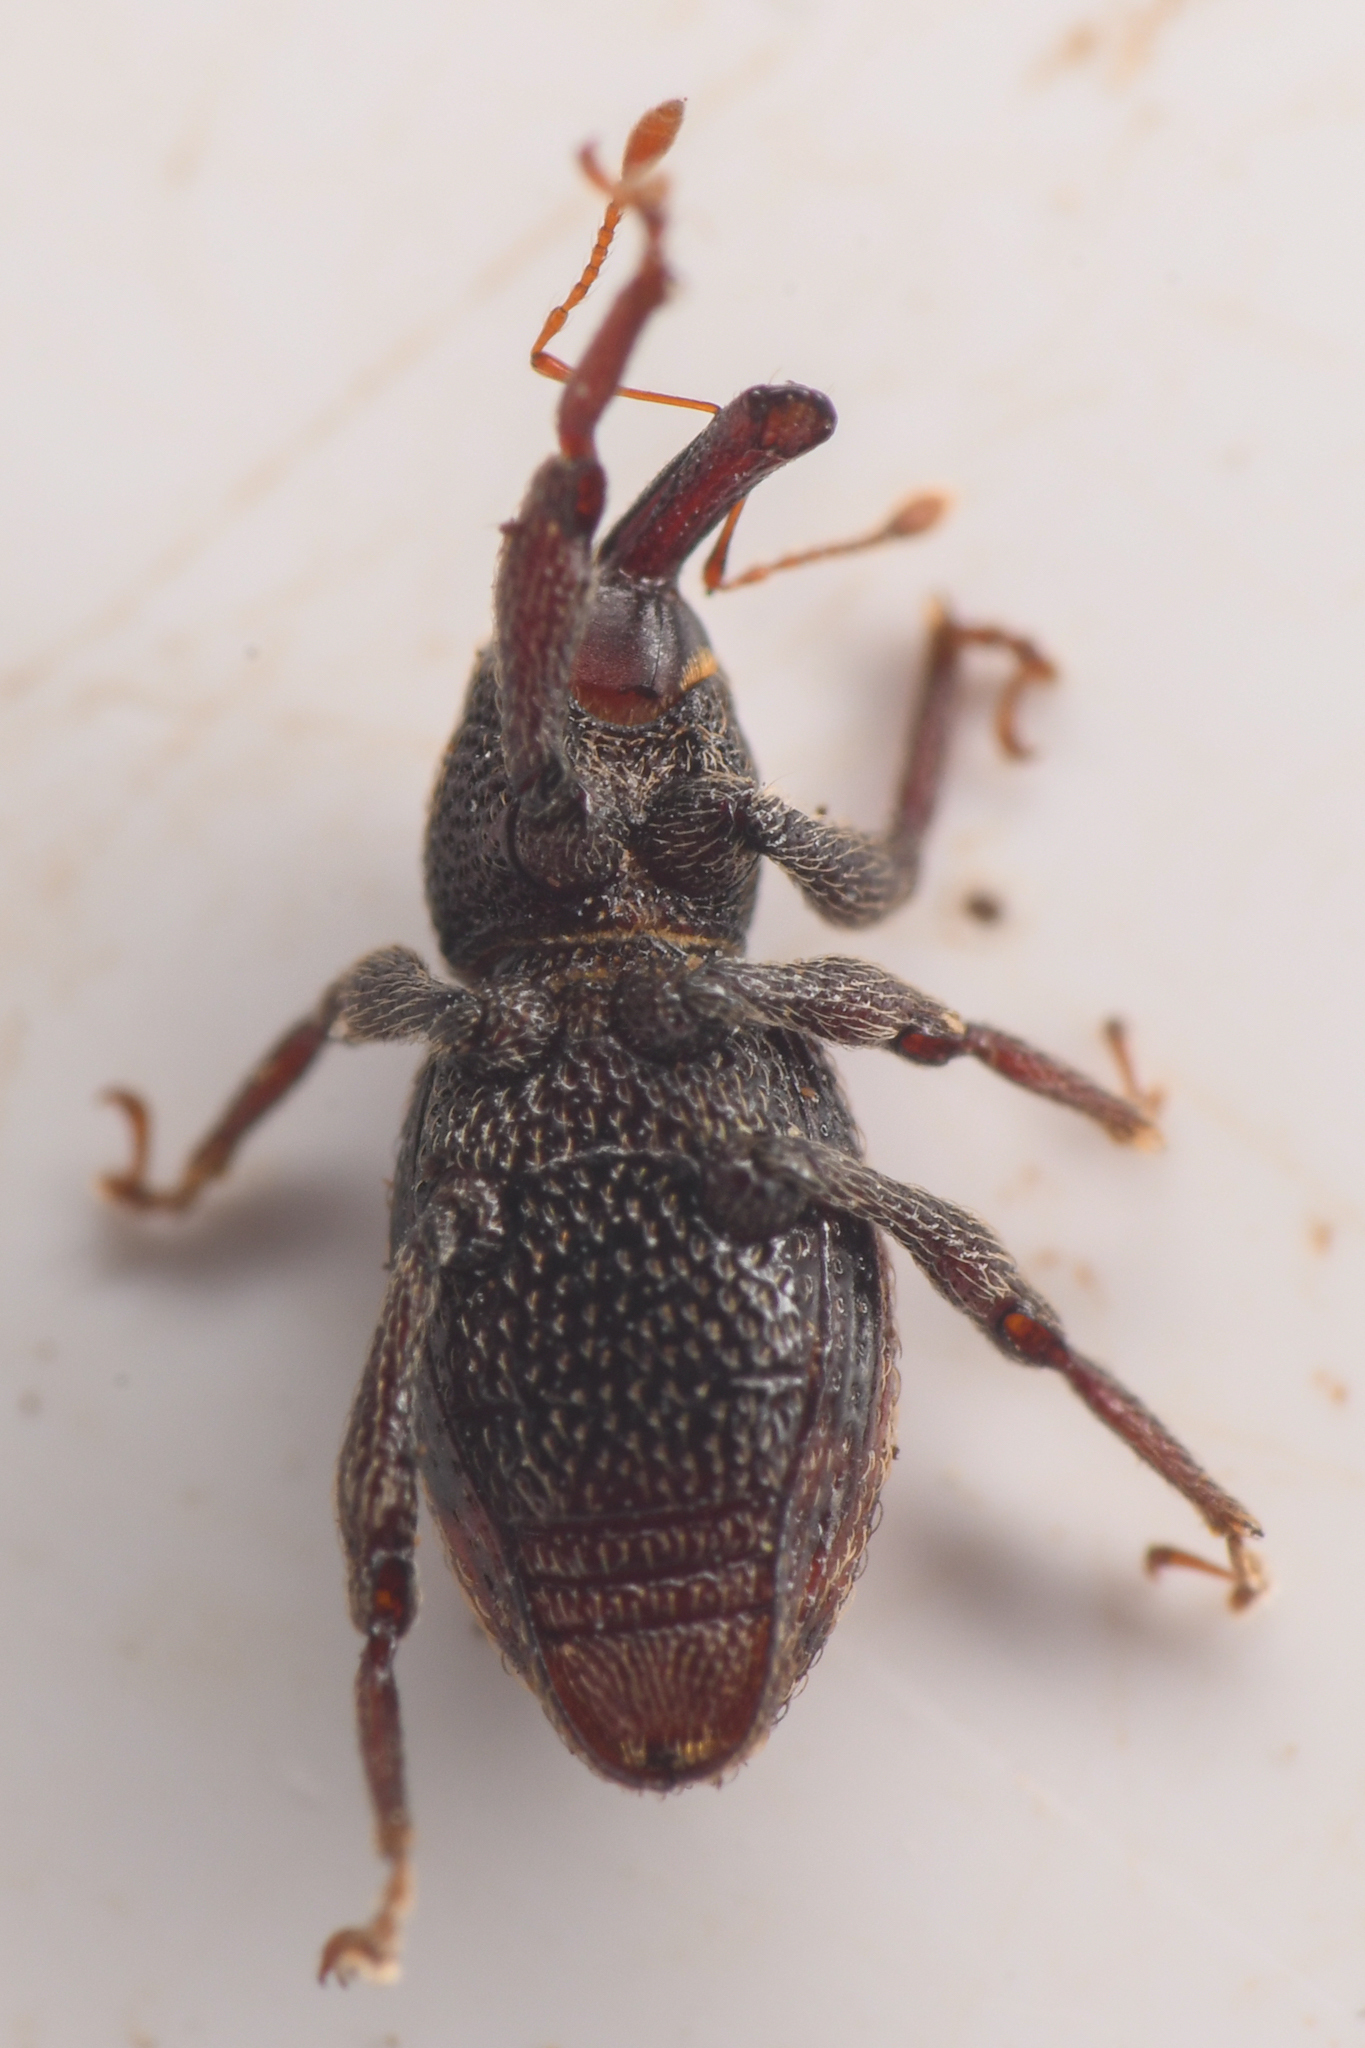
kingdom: Animalia
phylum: Arthropoda
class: Insecta
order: Coleoptera
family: Curculionidae
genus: Micromastus
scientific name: Micromastus gracilis
